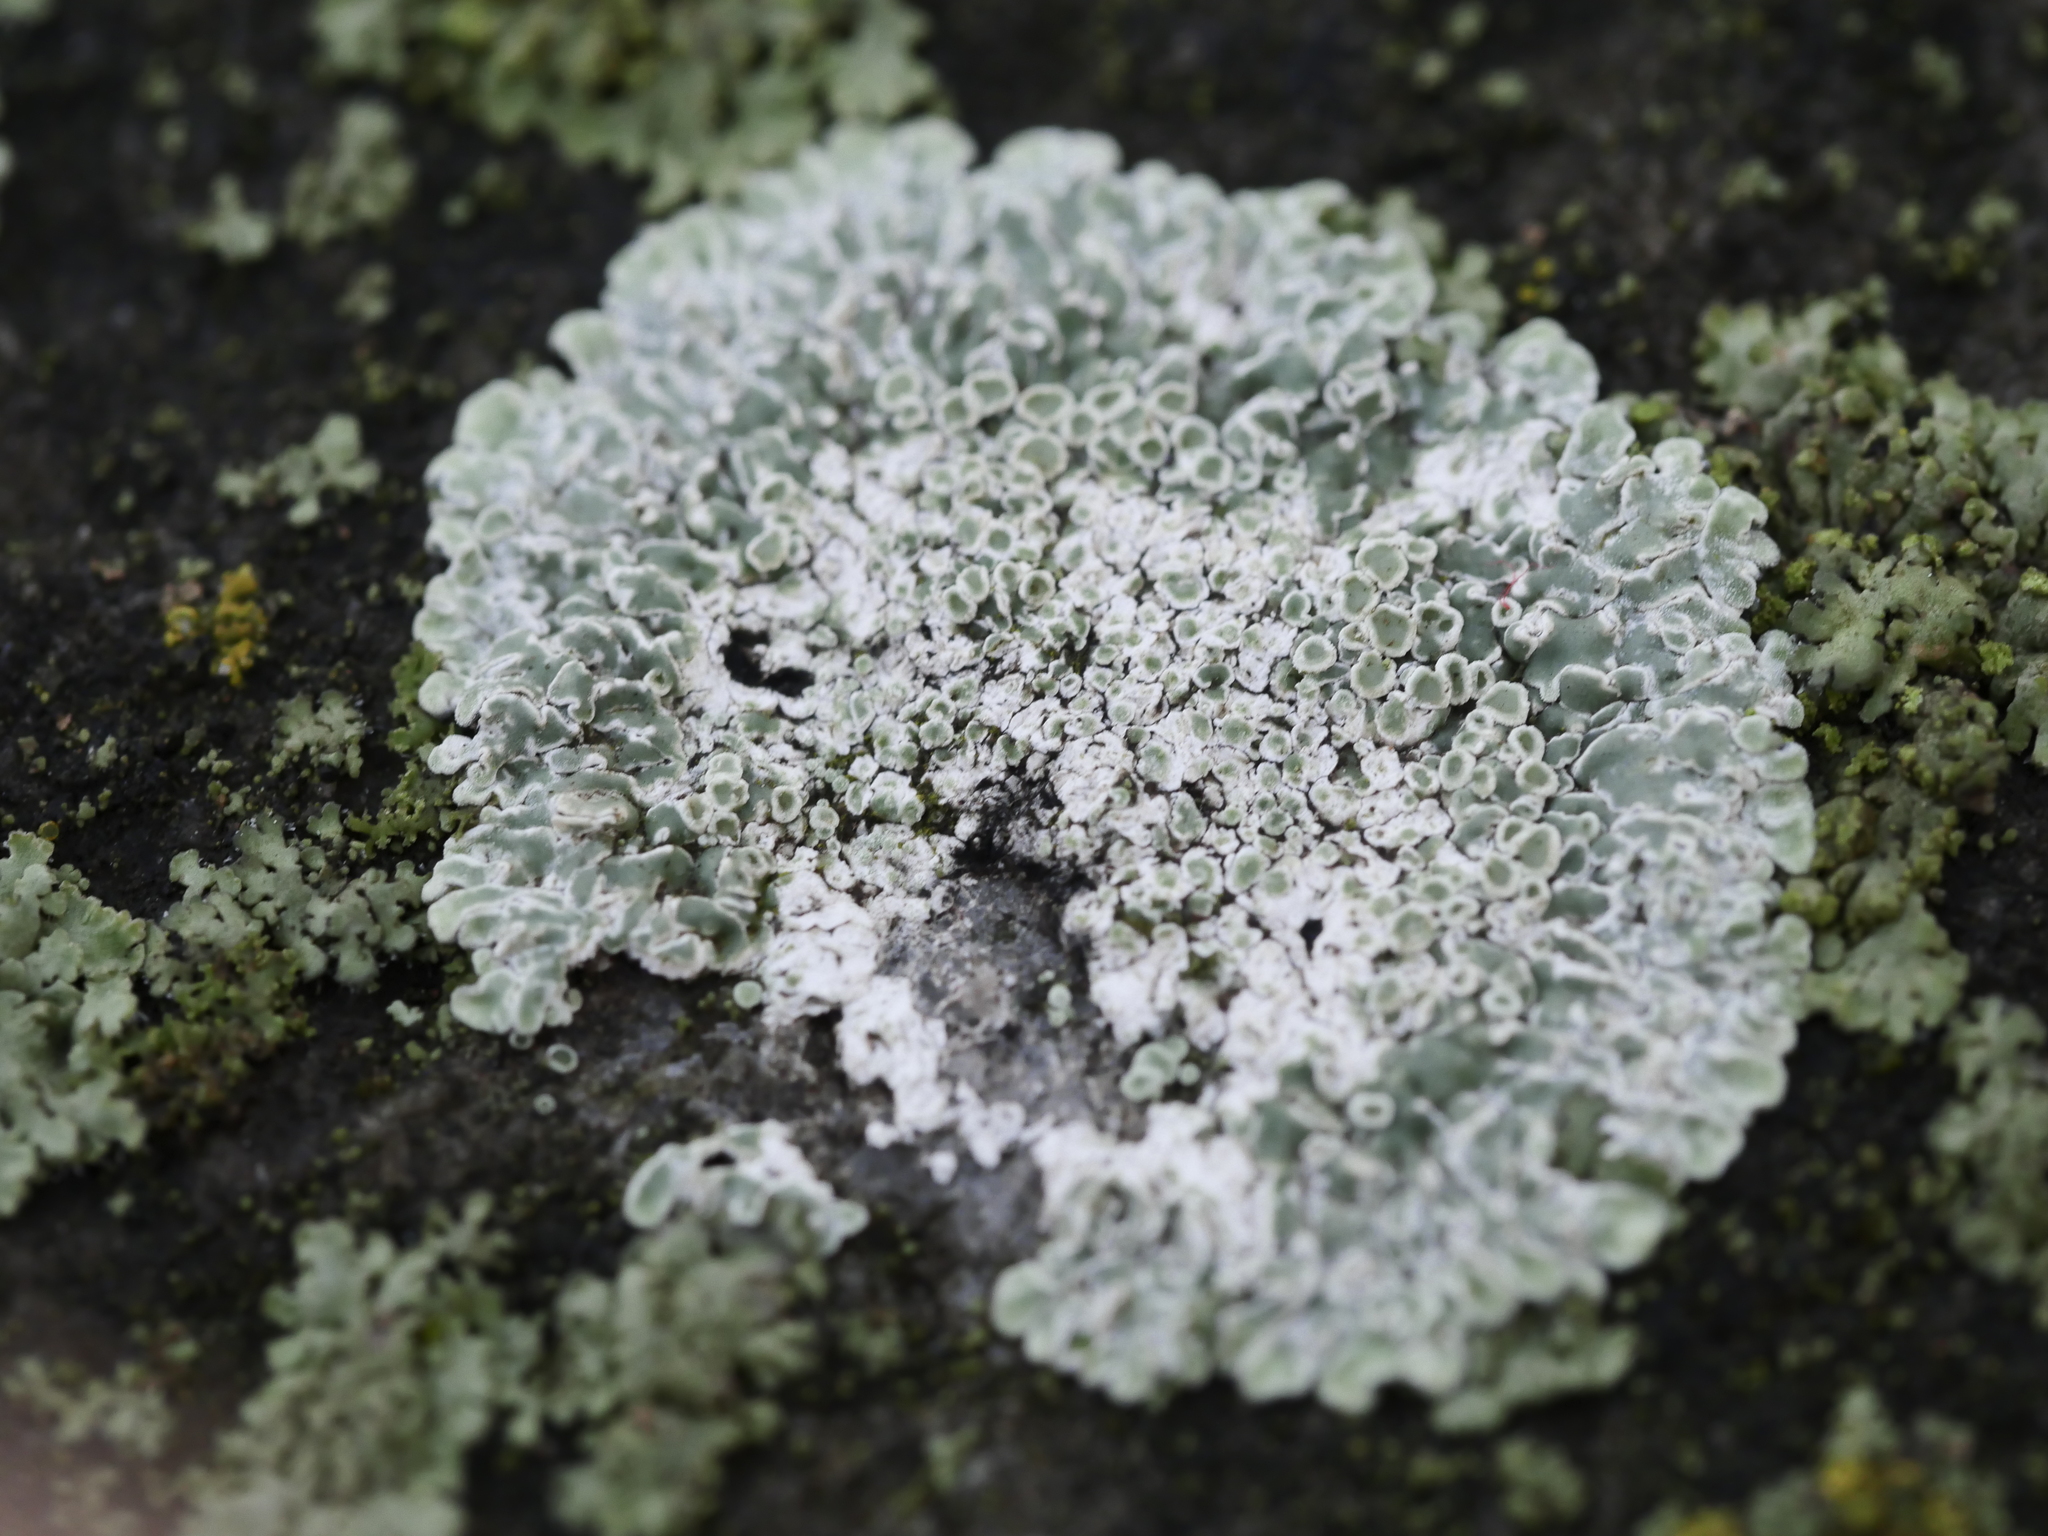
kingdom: Fungi
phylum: Ascomycota
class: Lecanoromycetes
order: Lecanorales
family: Lecanoraceae
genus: Protoparmeliopsis
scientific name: Protoparmeliopsis muralis
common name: Stonewall rim lichen
